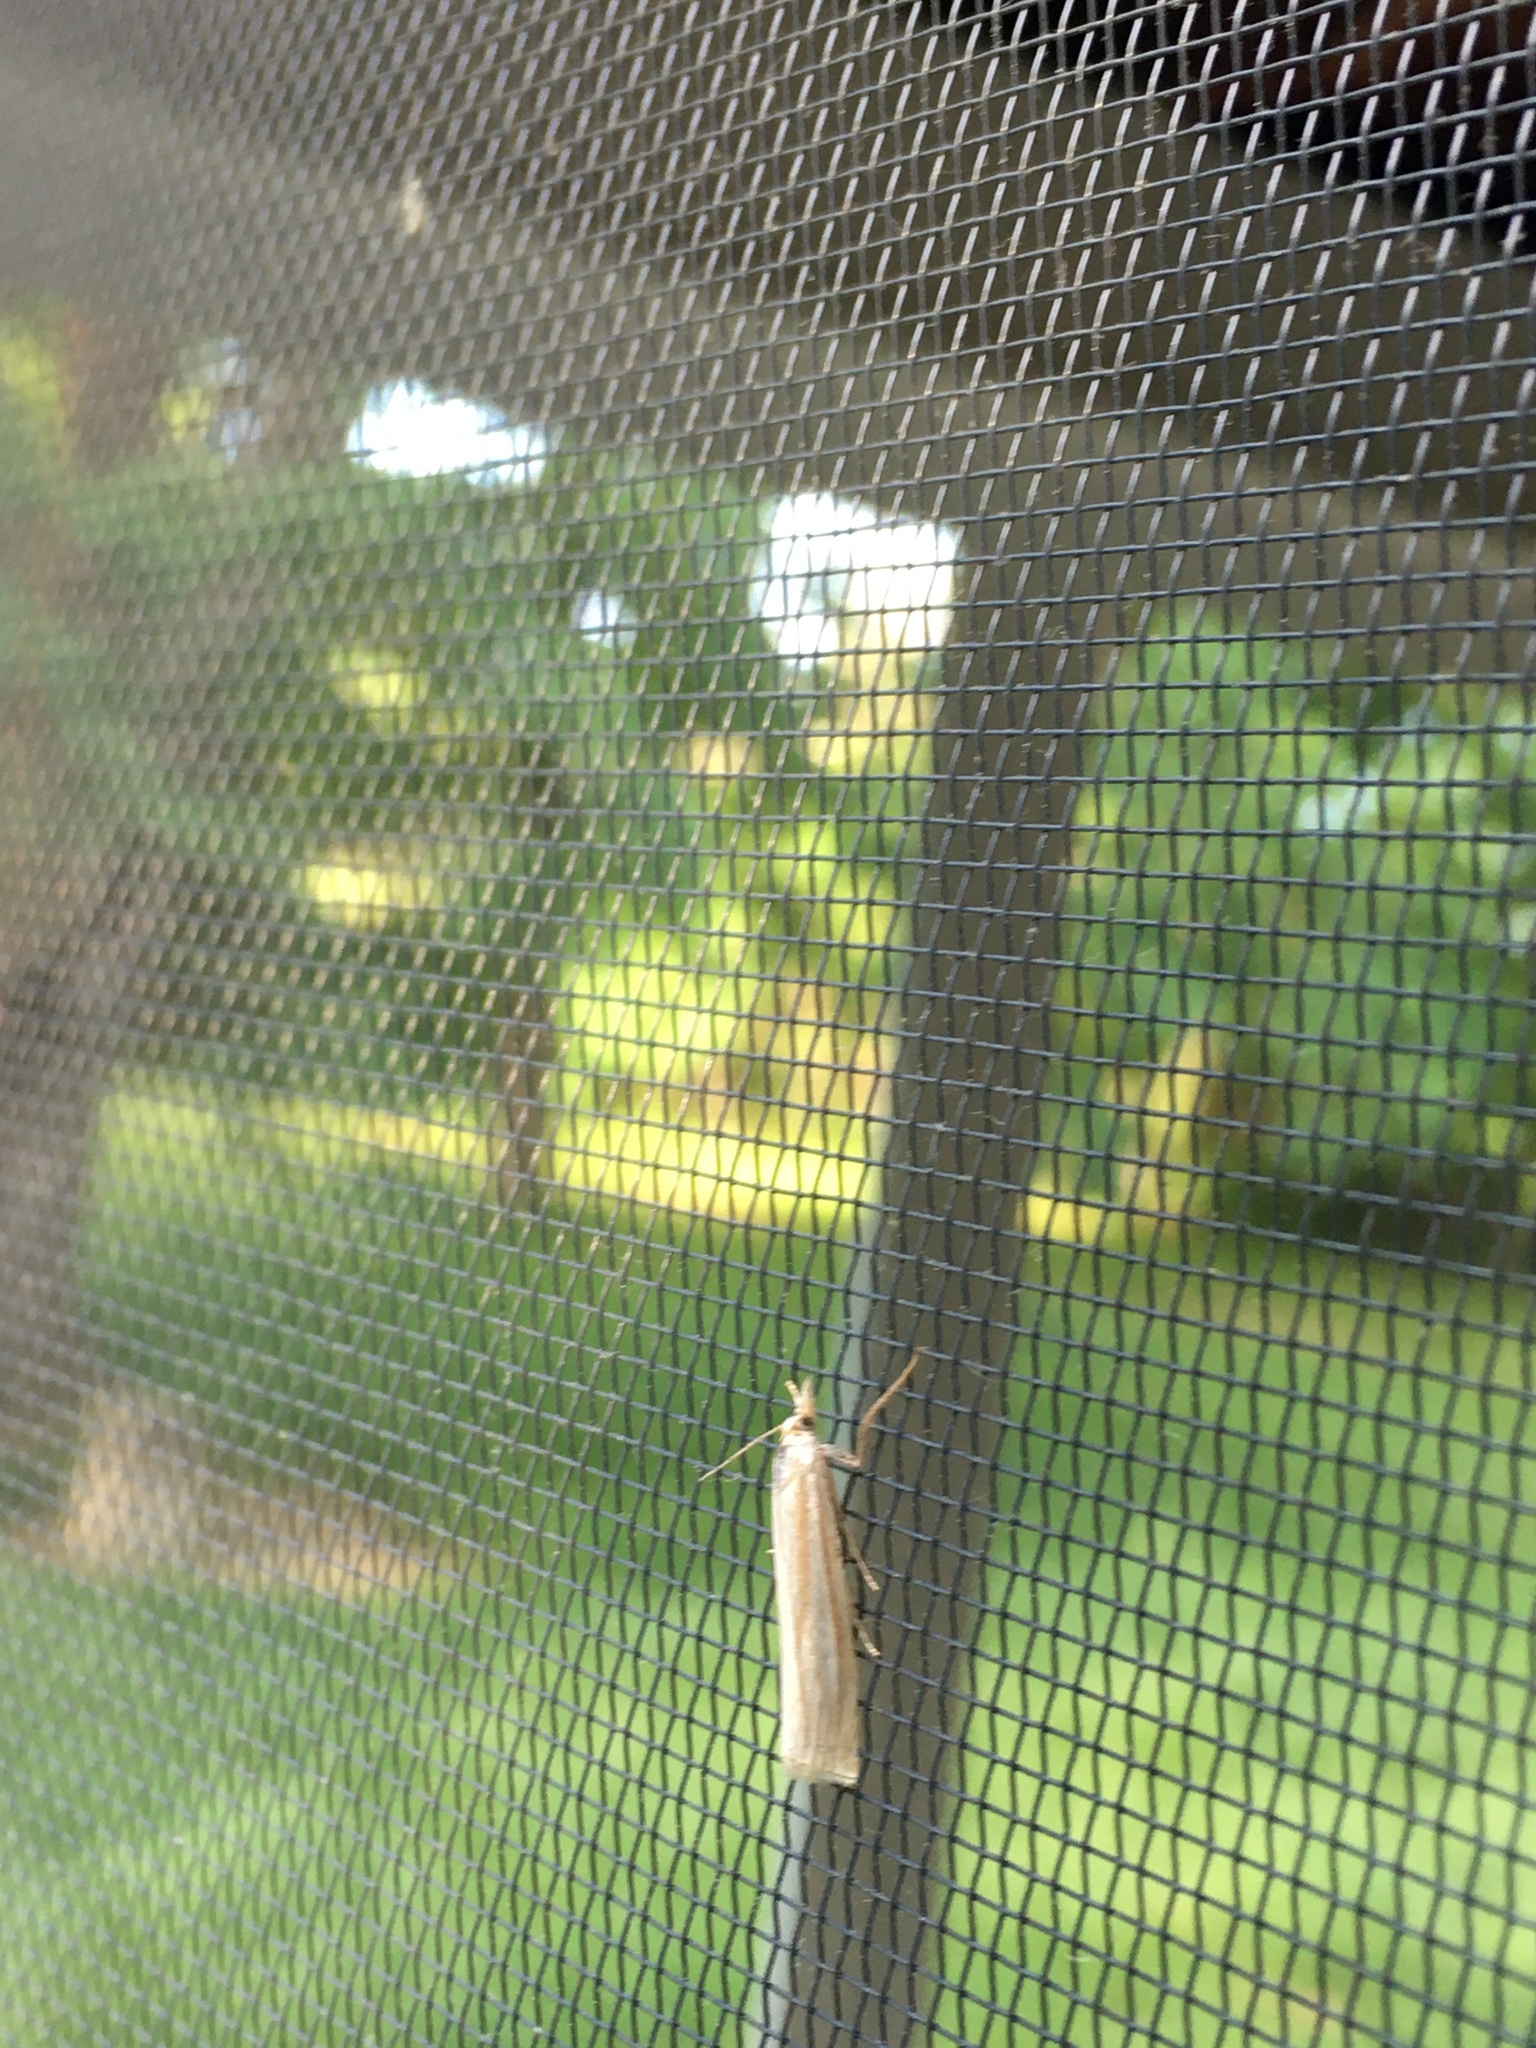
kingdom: Animalia
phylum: Arthropoda
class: Insecta
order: Lepidoptera
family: Crambidae
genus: Crambus
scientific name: Crambus laqueatellus
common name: Eastern grass-veneer
